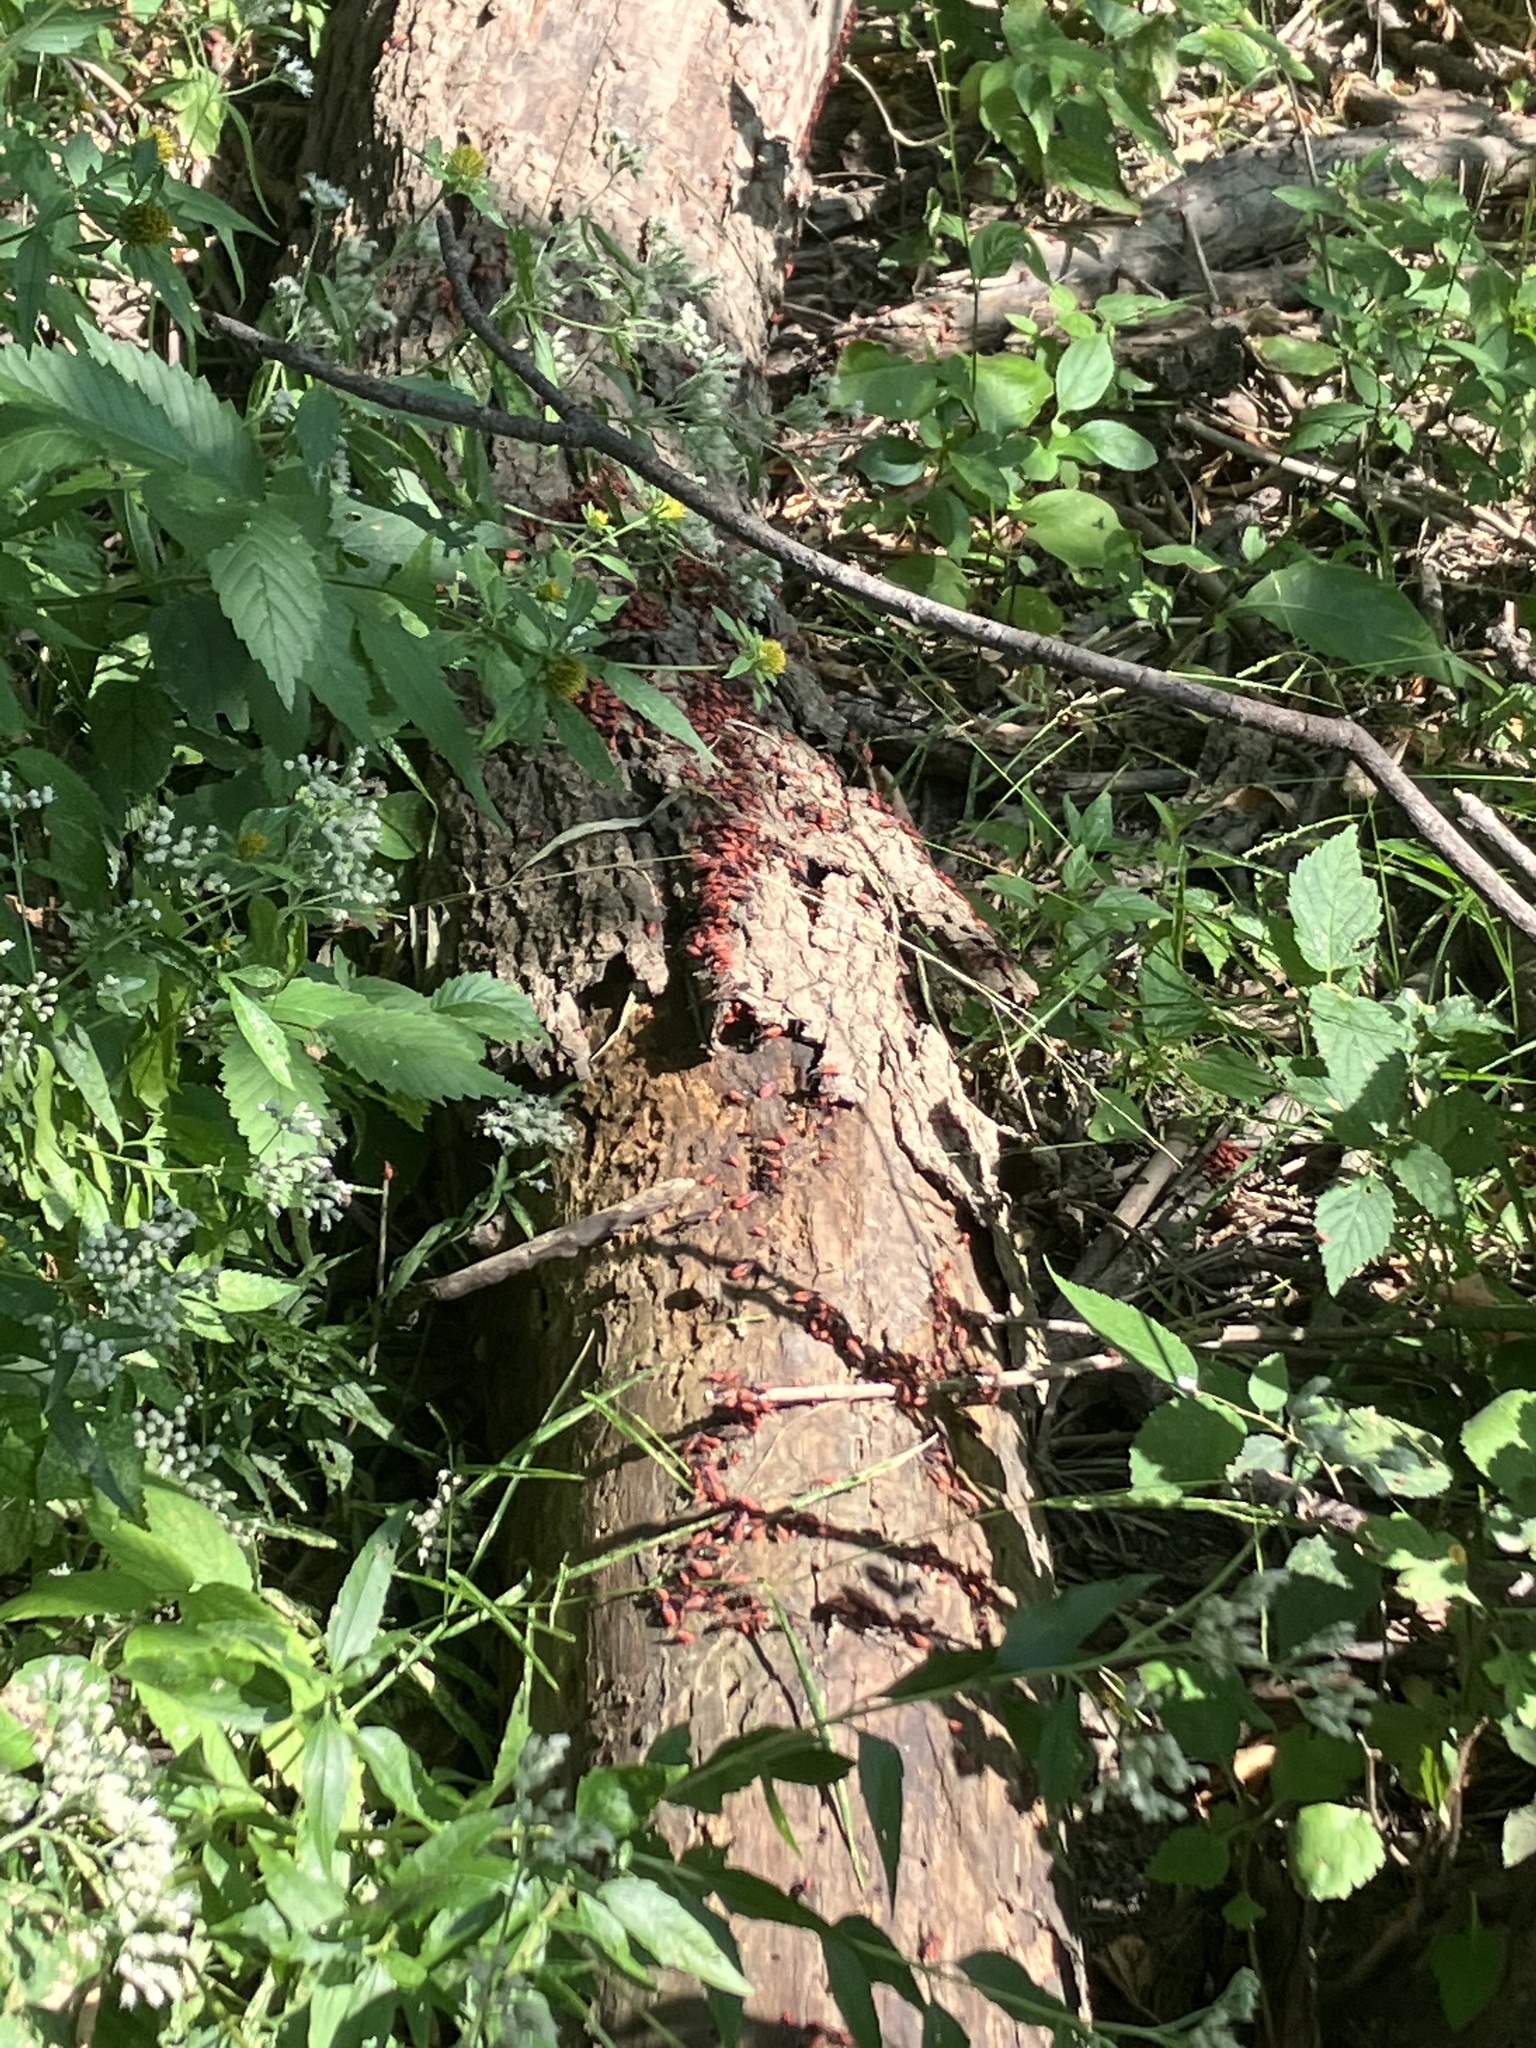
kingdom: Animalia
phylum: Arthropoda
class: Insecta
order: Hemiptera
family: Rhopalidae
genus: Boisea
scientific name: Boisea trivittata
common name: Boxelder bug
